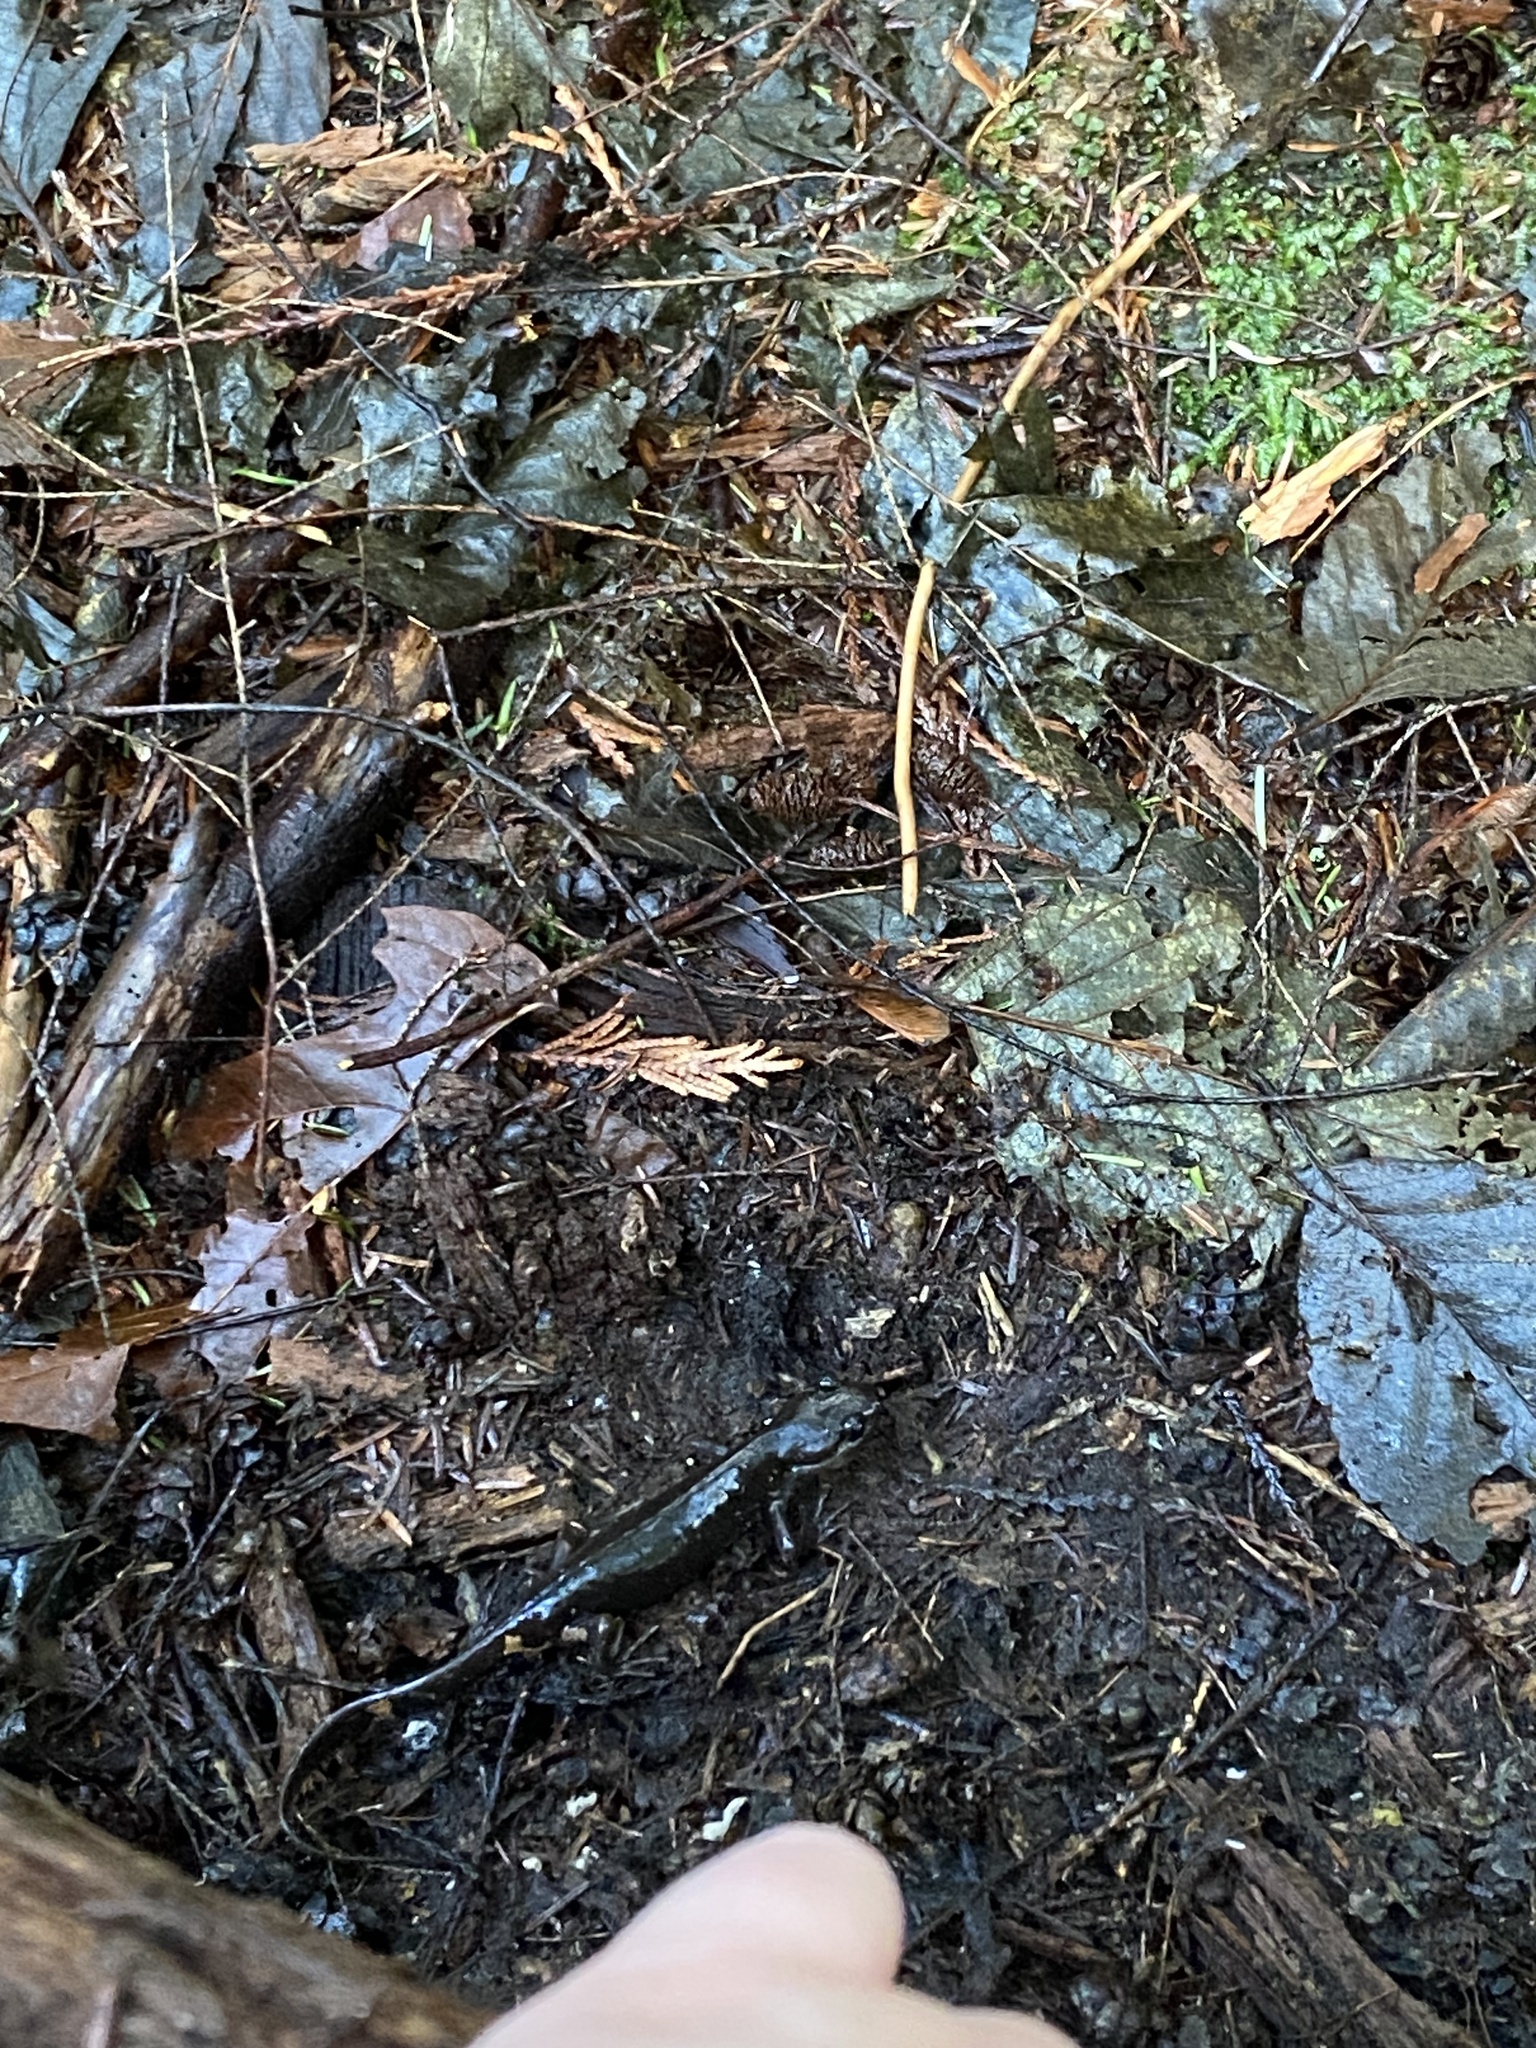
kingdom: Animalia
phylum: Chordata
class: Amphibia
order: Caudata
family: Ambystomatidae
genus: Ambystoma
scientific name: Ambystoma gracile
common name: Northwestern salamander
